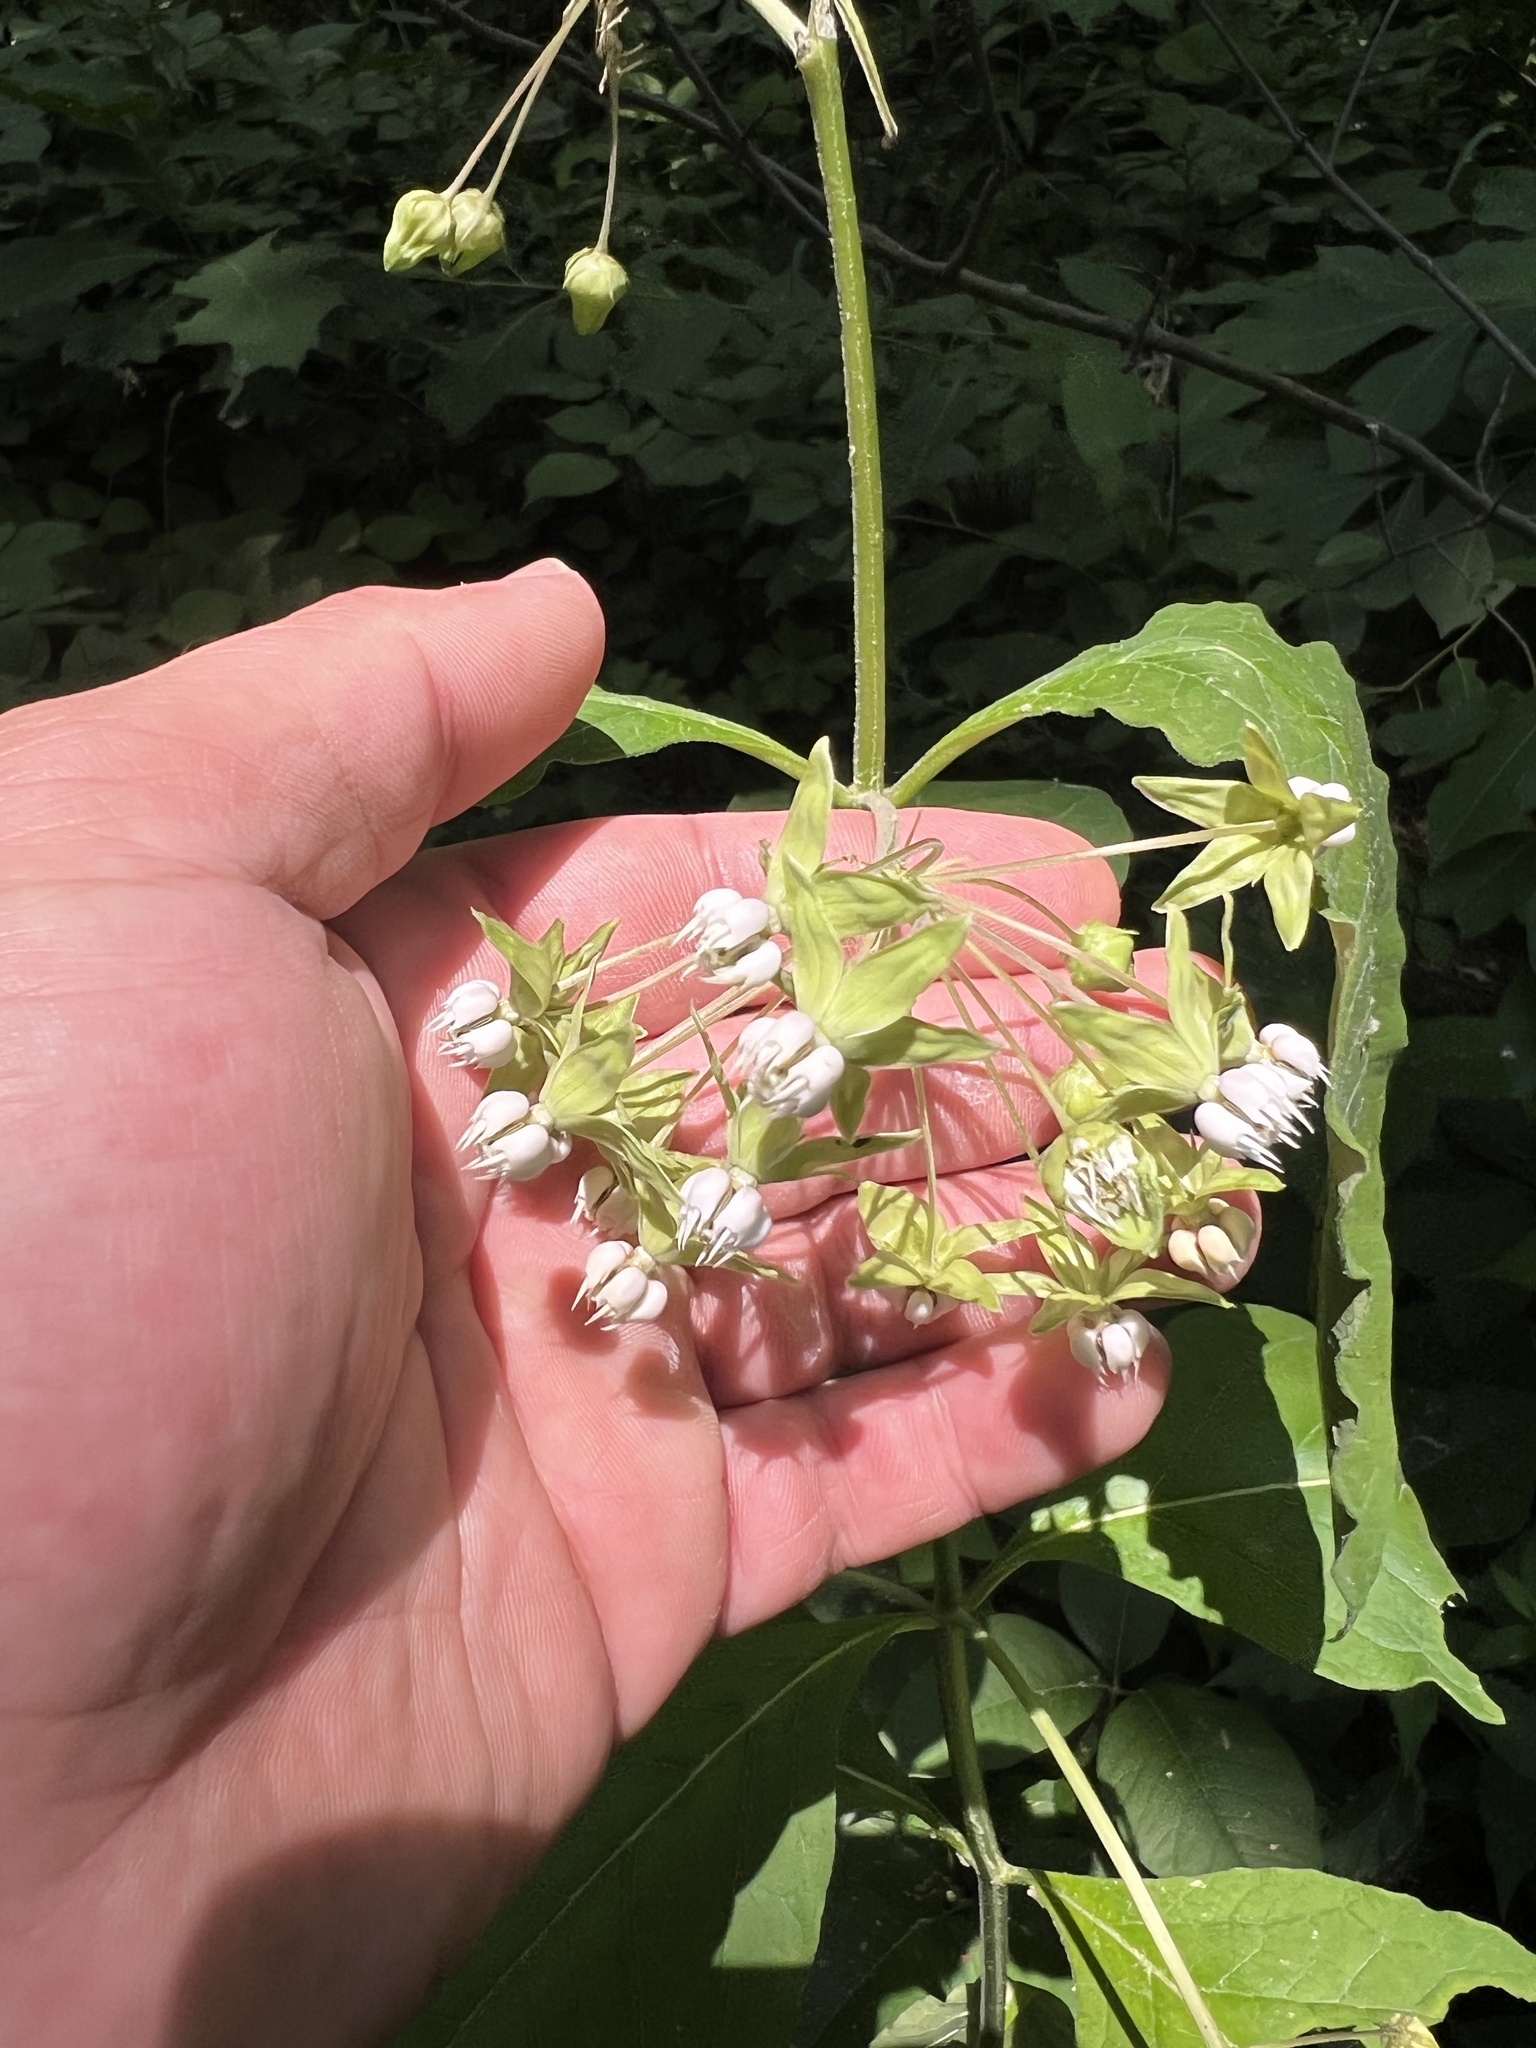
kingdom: Plantae
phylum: Tracheophyta
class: Magnoliopsida
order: Gentianales
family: Apocynaceae
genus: Asclepias
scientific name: Asclepias exaltata
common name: Poke milkweed
